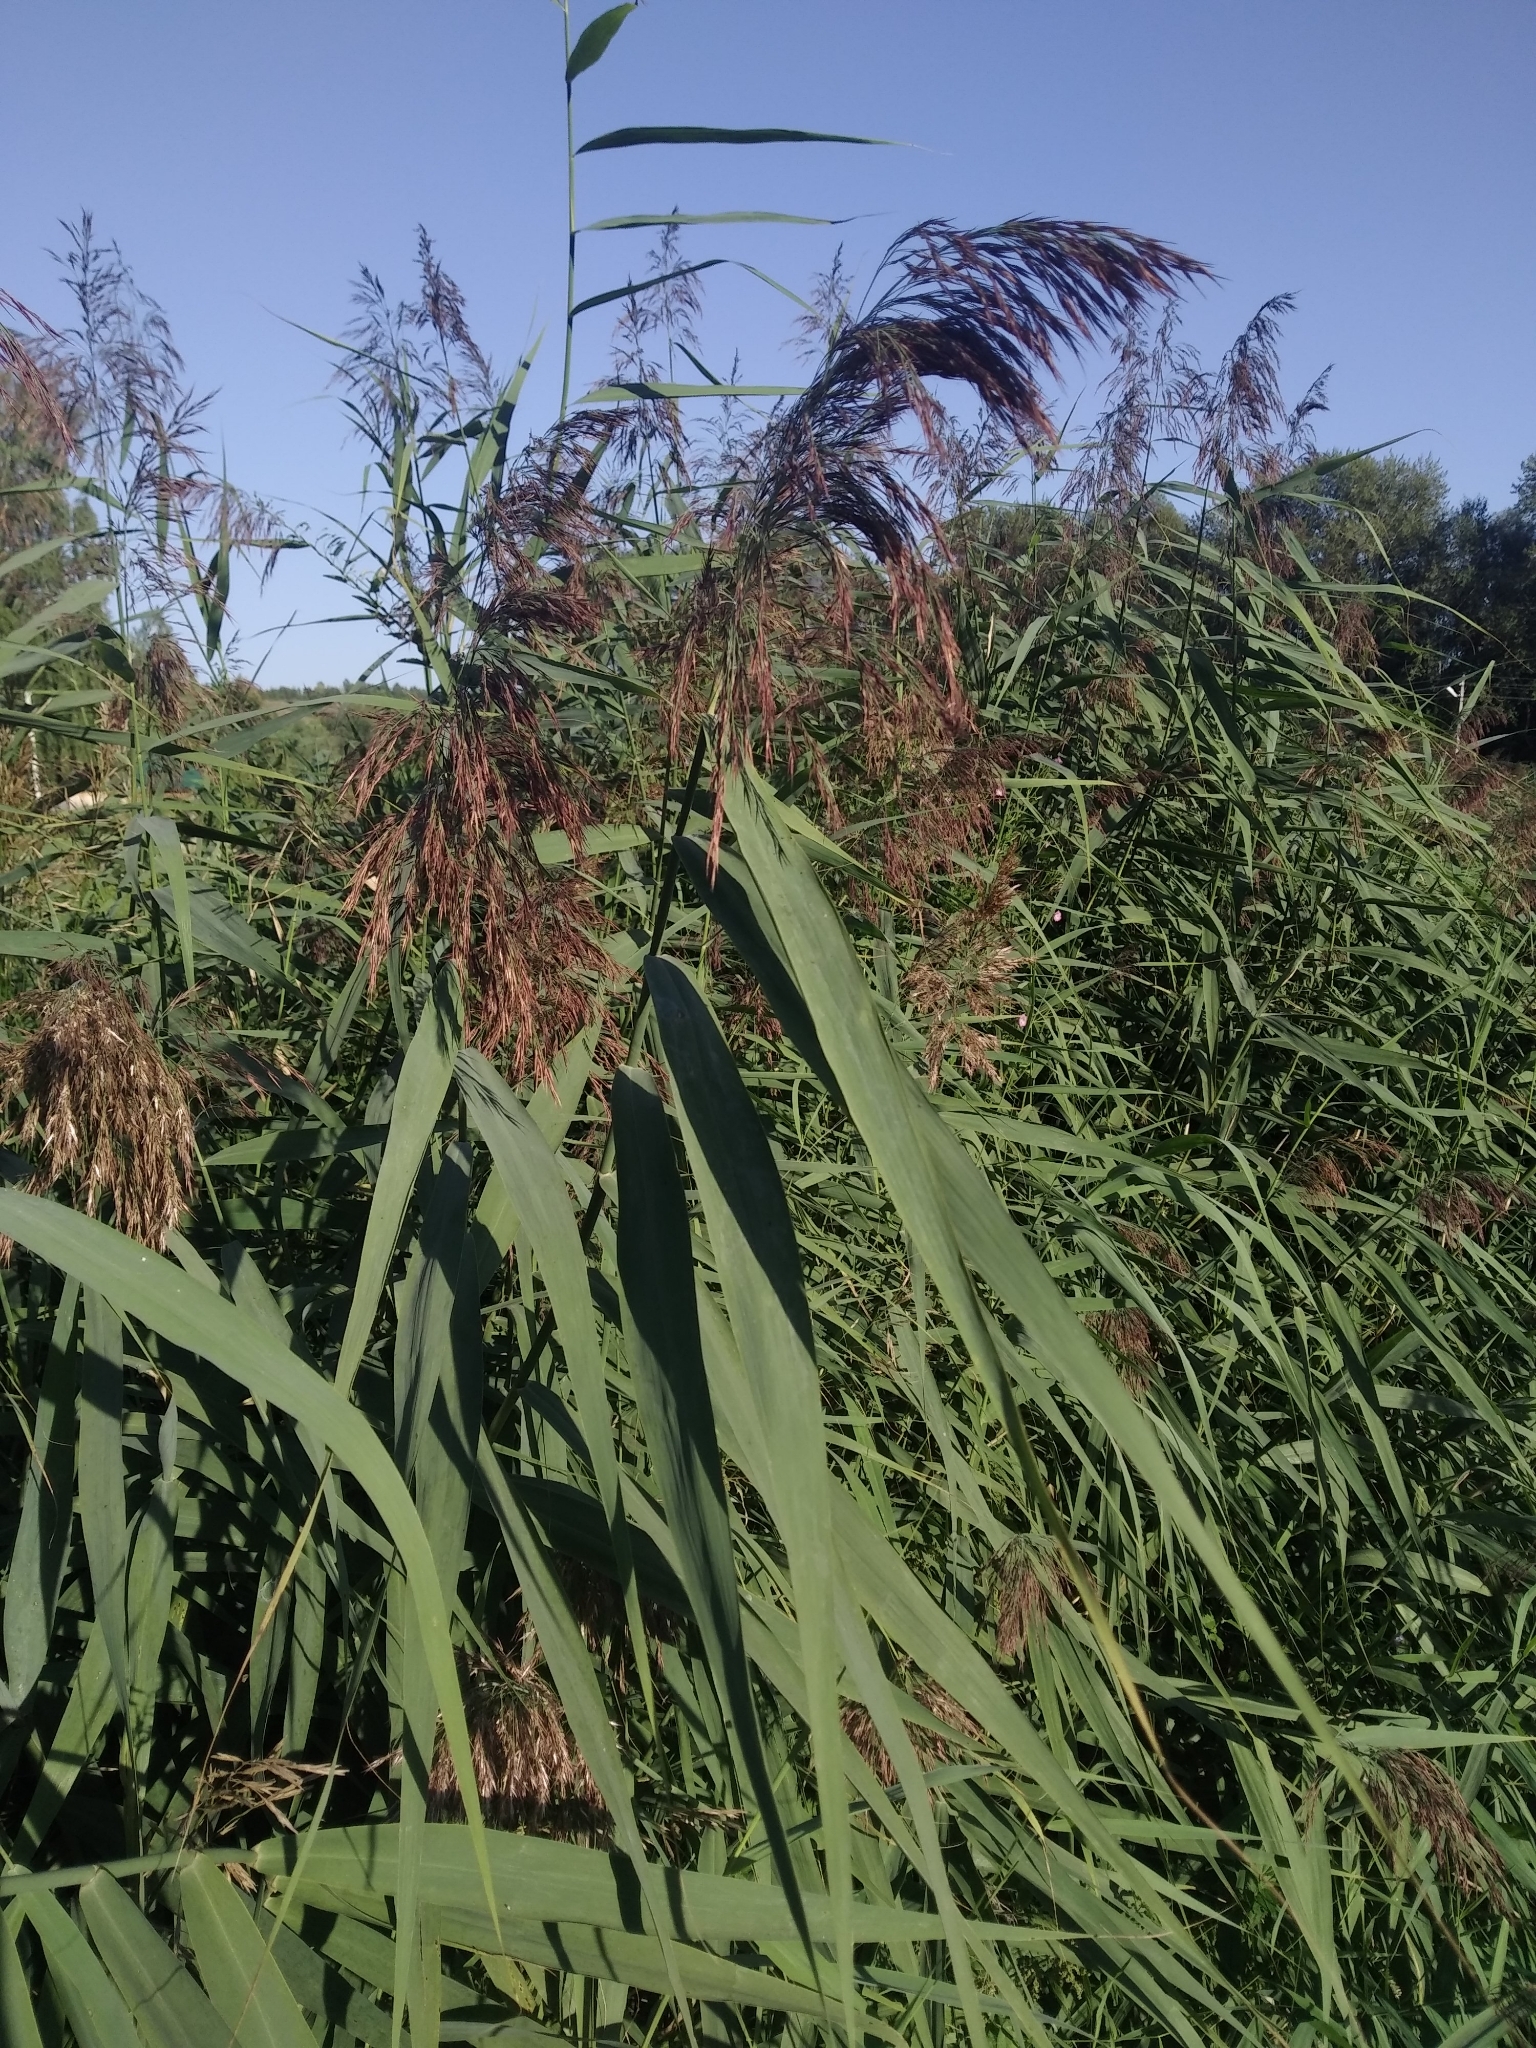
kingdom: Plantae
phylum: Tracheophyta
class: Liliopsida
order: Poales
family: Poaceae
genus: Phragmites
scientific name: Phragmites australis
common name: Common reed
